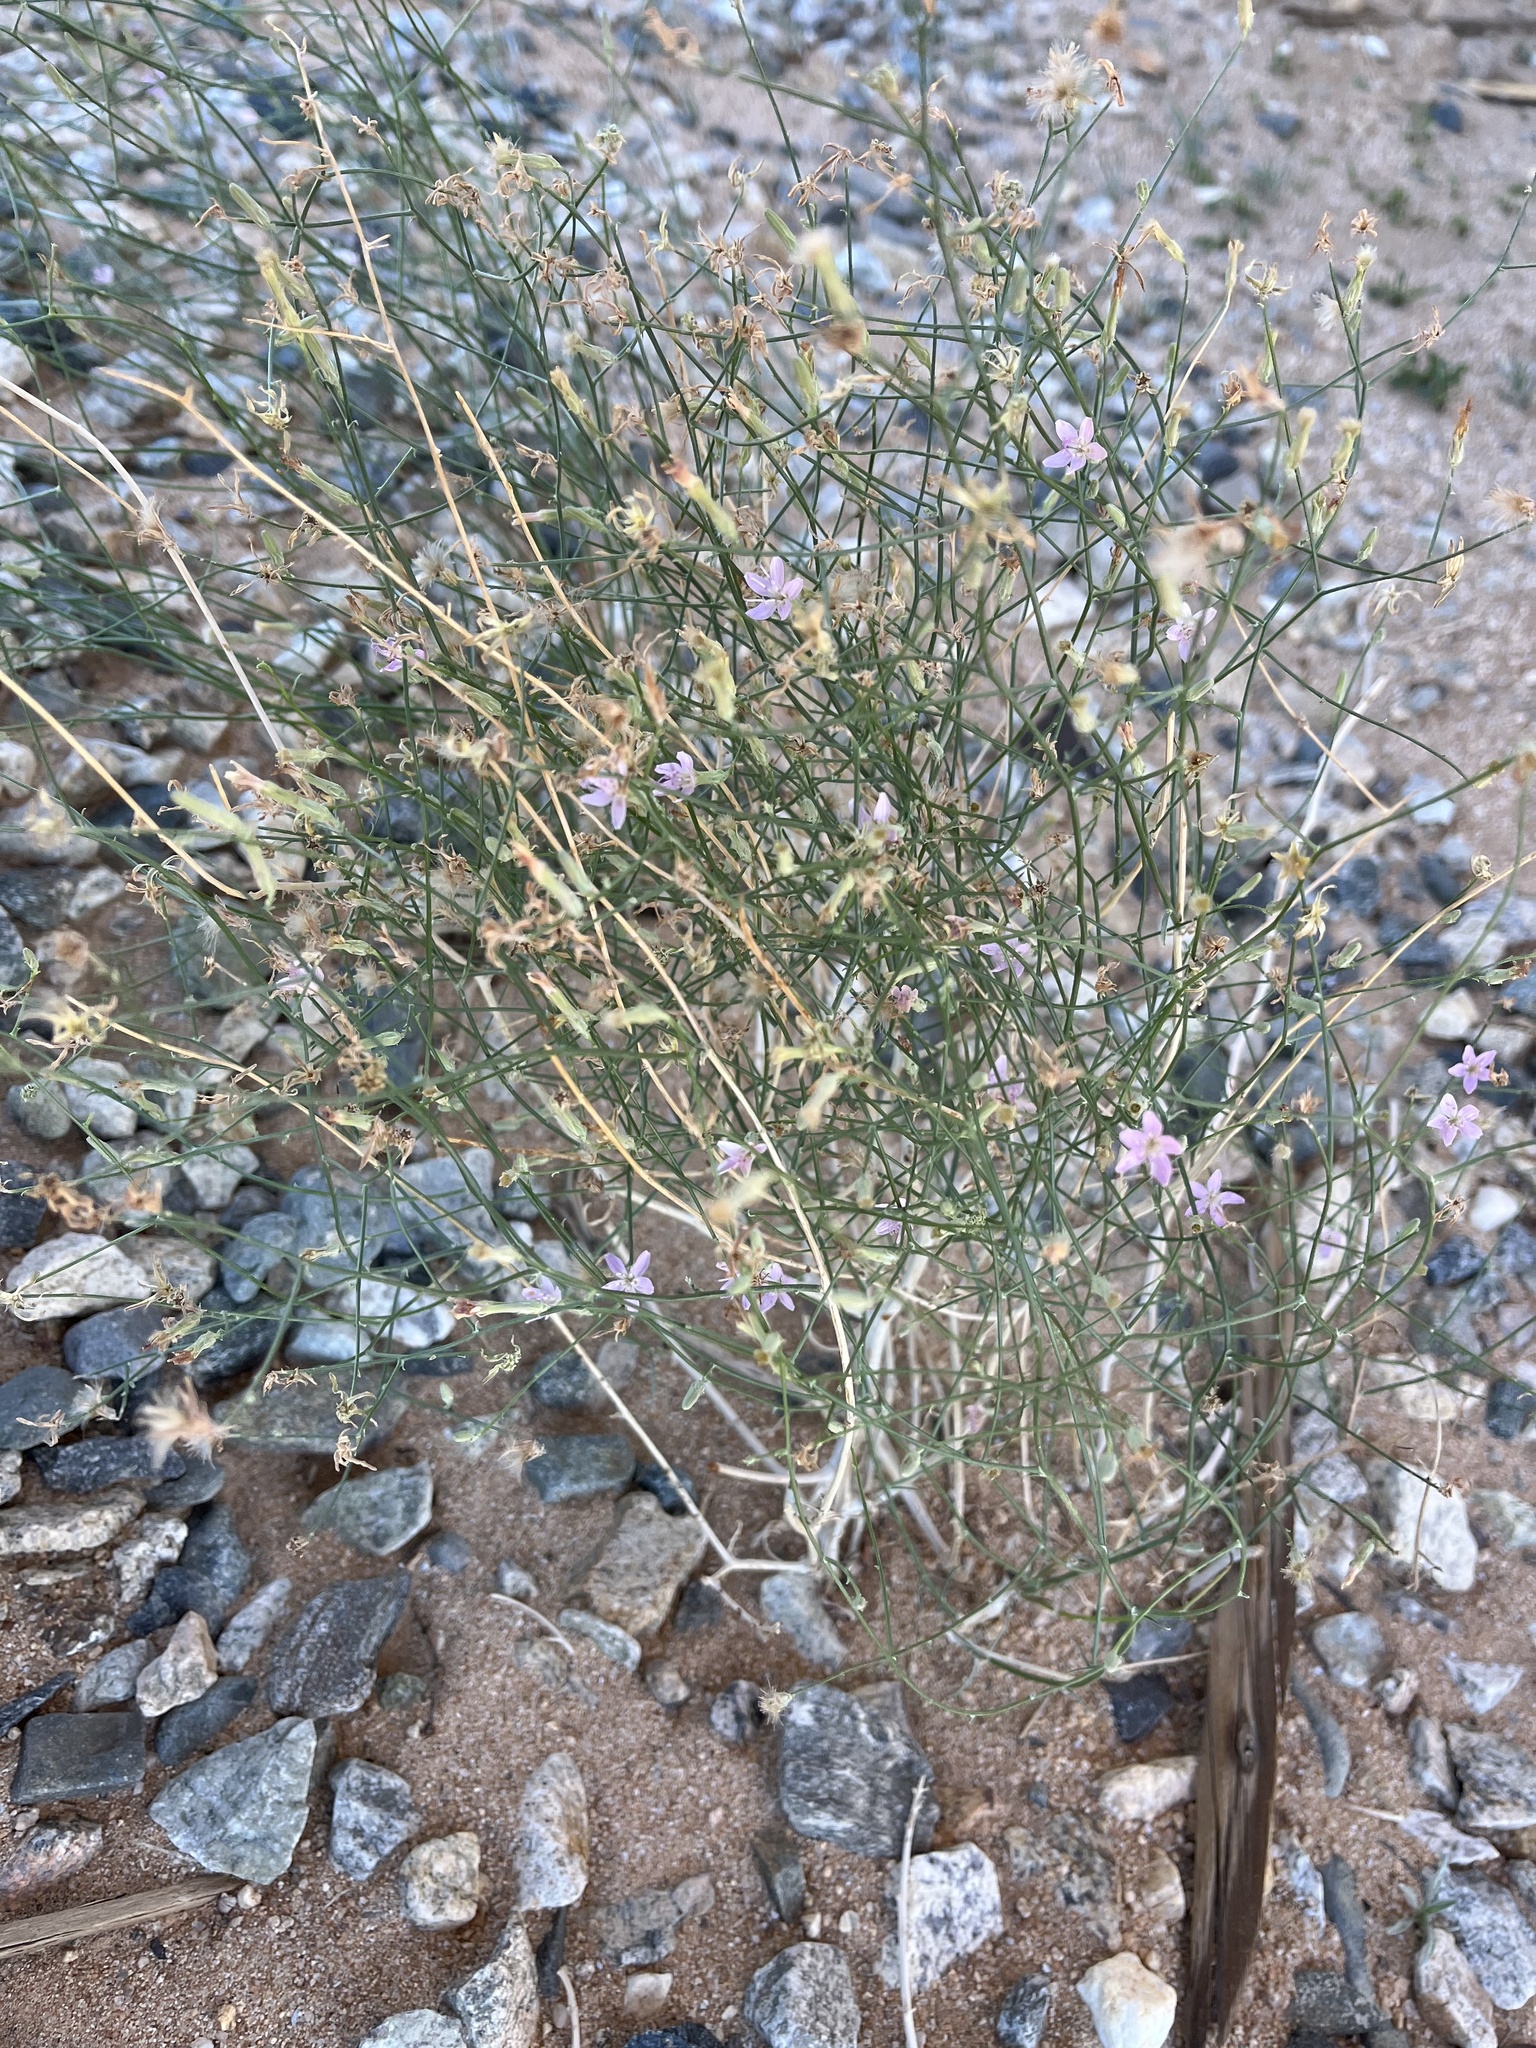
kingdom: Plantae
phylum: Tracheophyta
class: Magnoliopsida
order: Asterales
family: Asteraceae
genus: Stephanomeria
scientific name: Stephanomeria pauciflora
